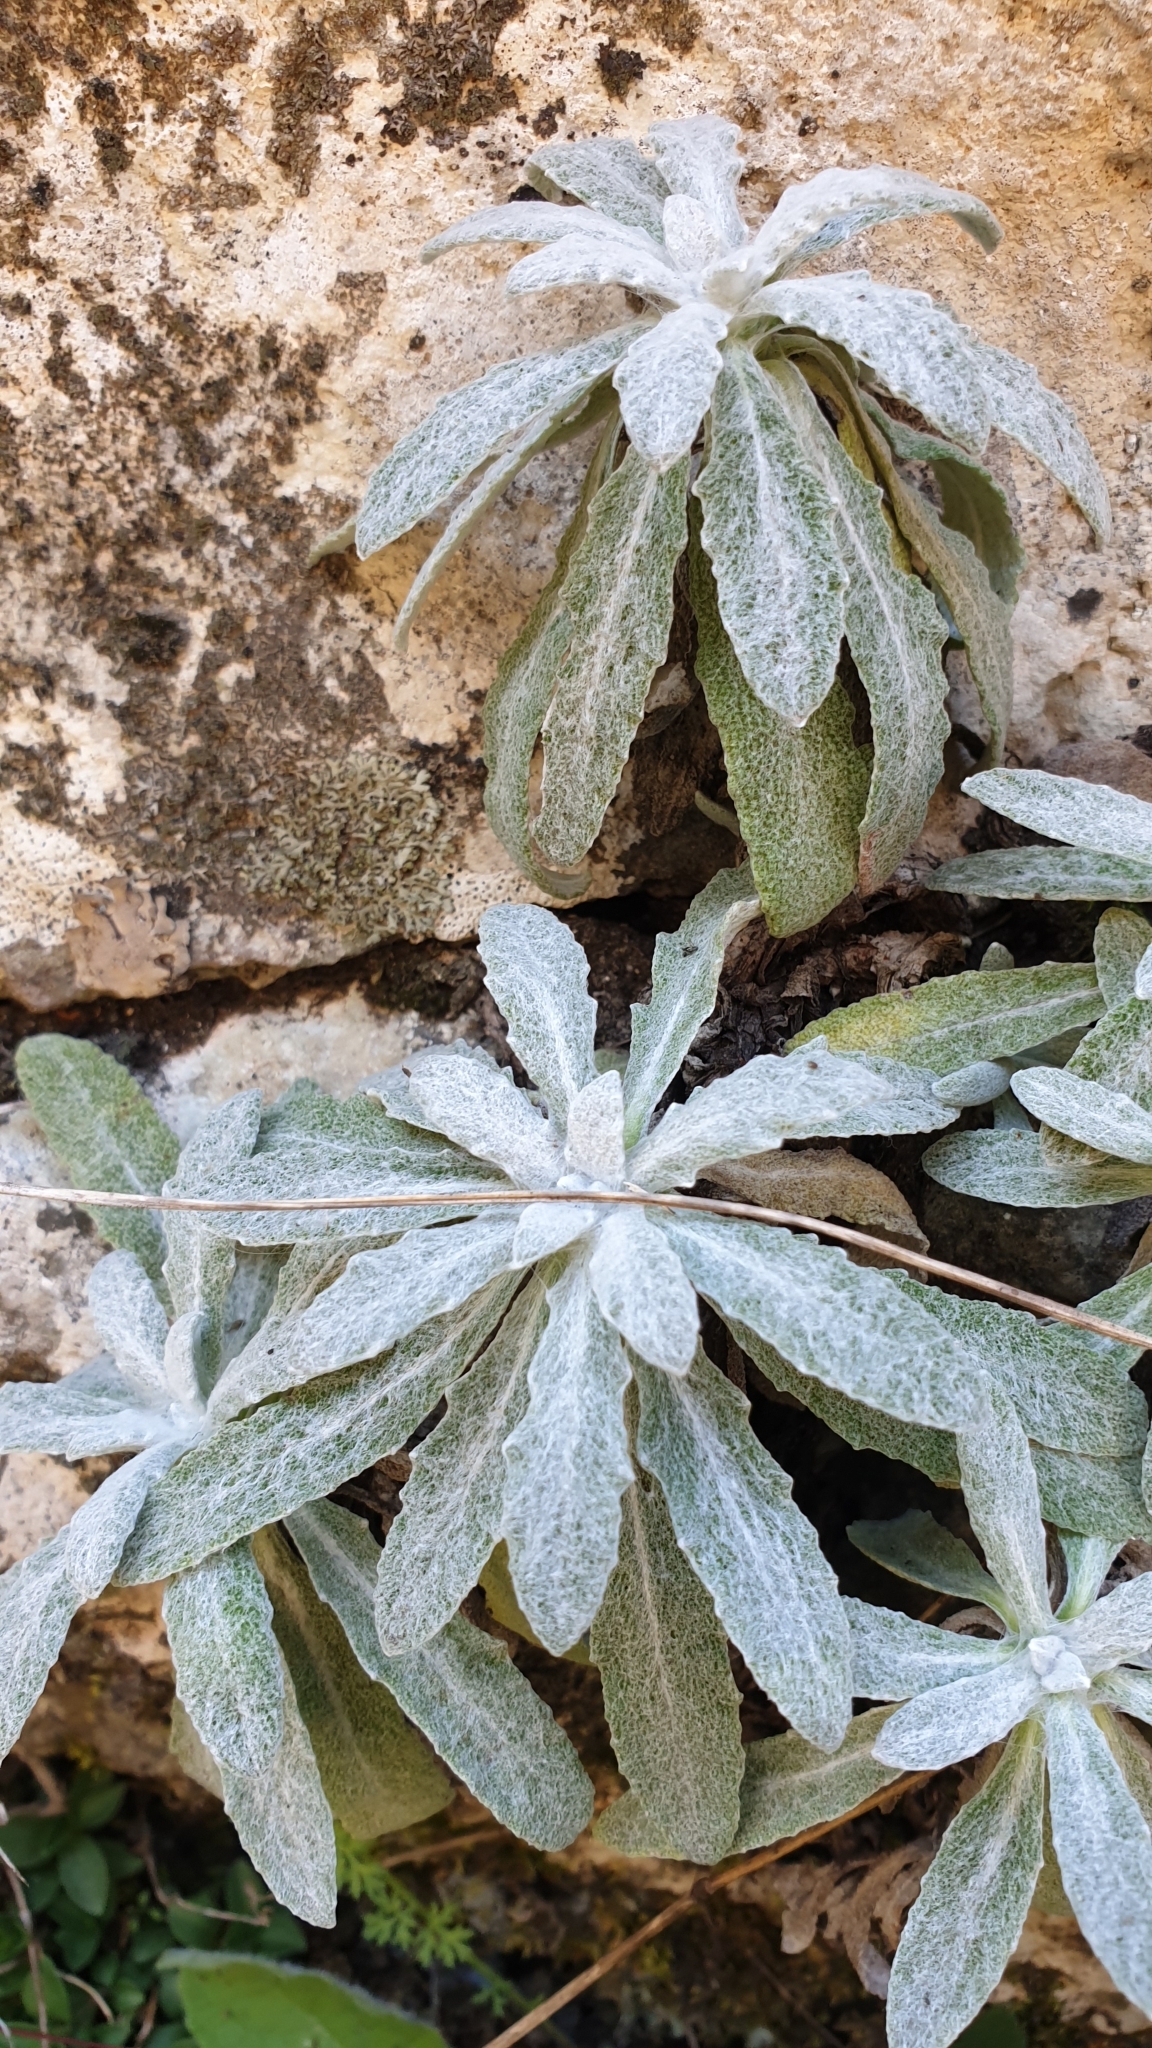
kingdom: Plantae
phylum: Tracheophyta
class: Magnoliopsida
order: Lamiales
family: Lamiaceae
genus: Salvia
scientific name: Salvia canescens
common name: Hoary salvia
